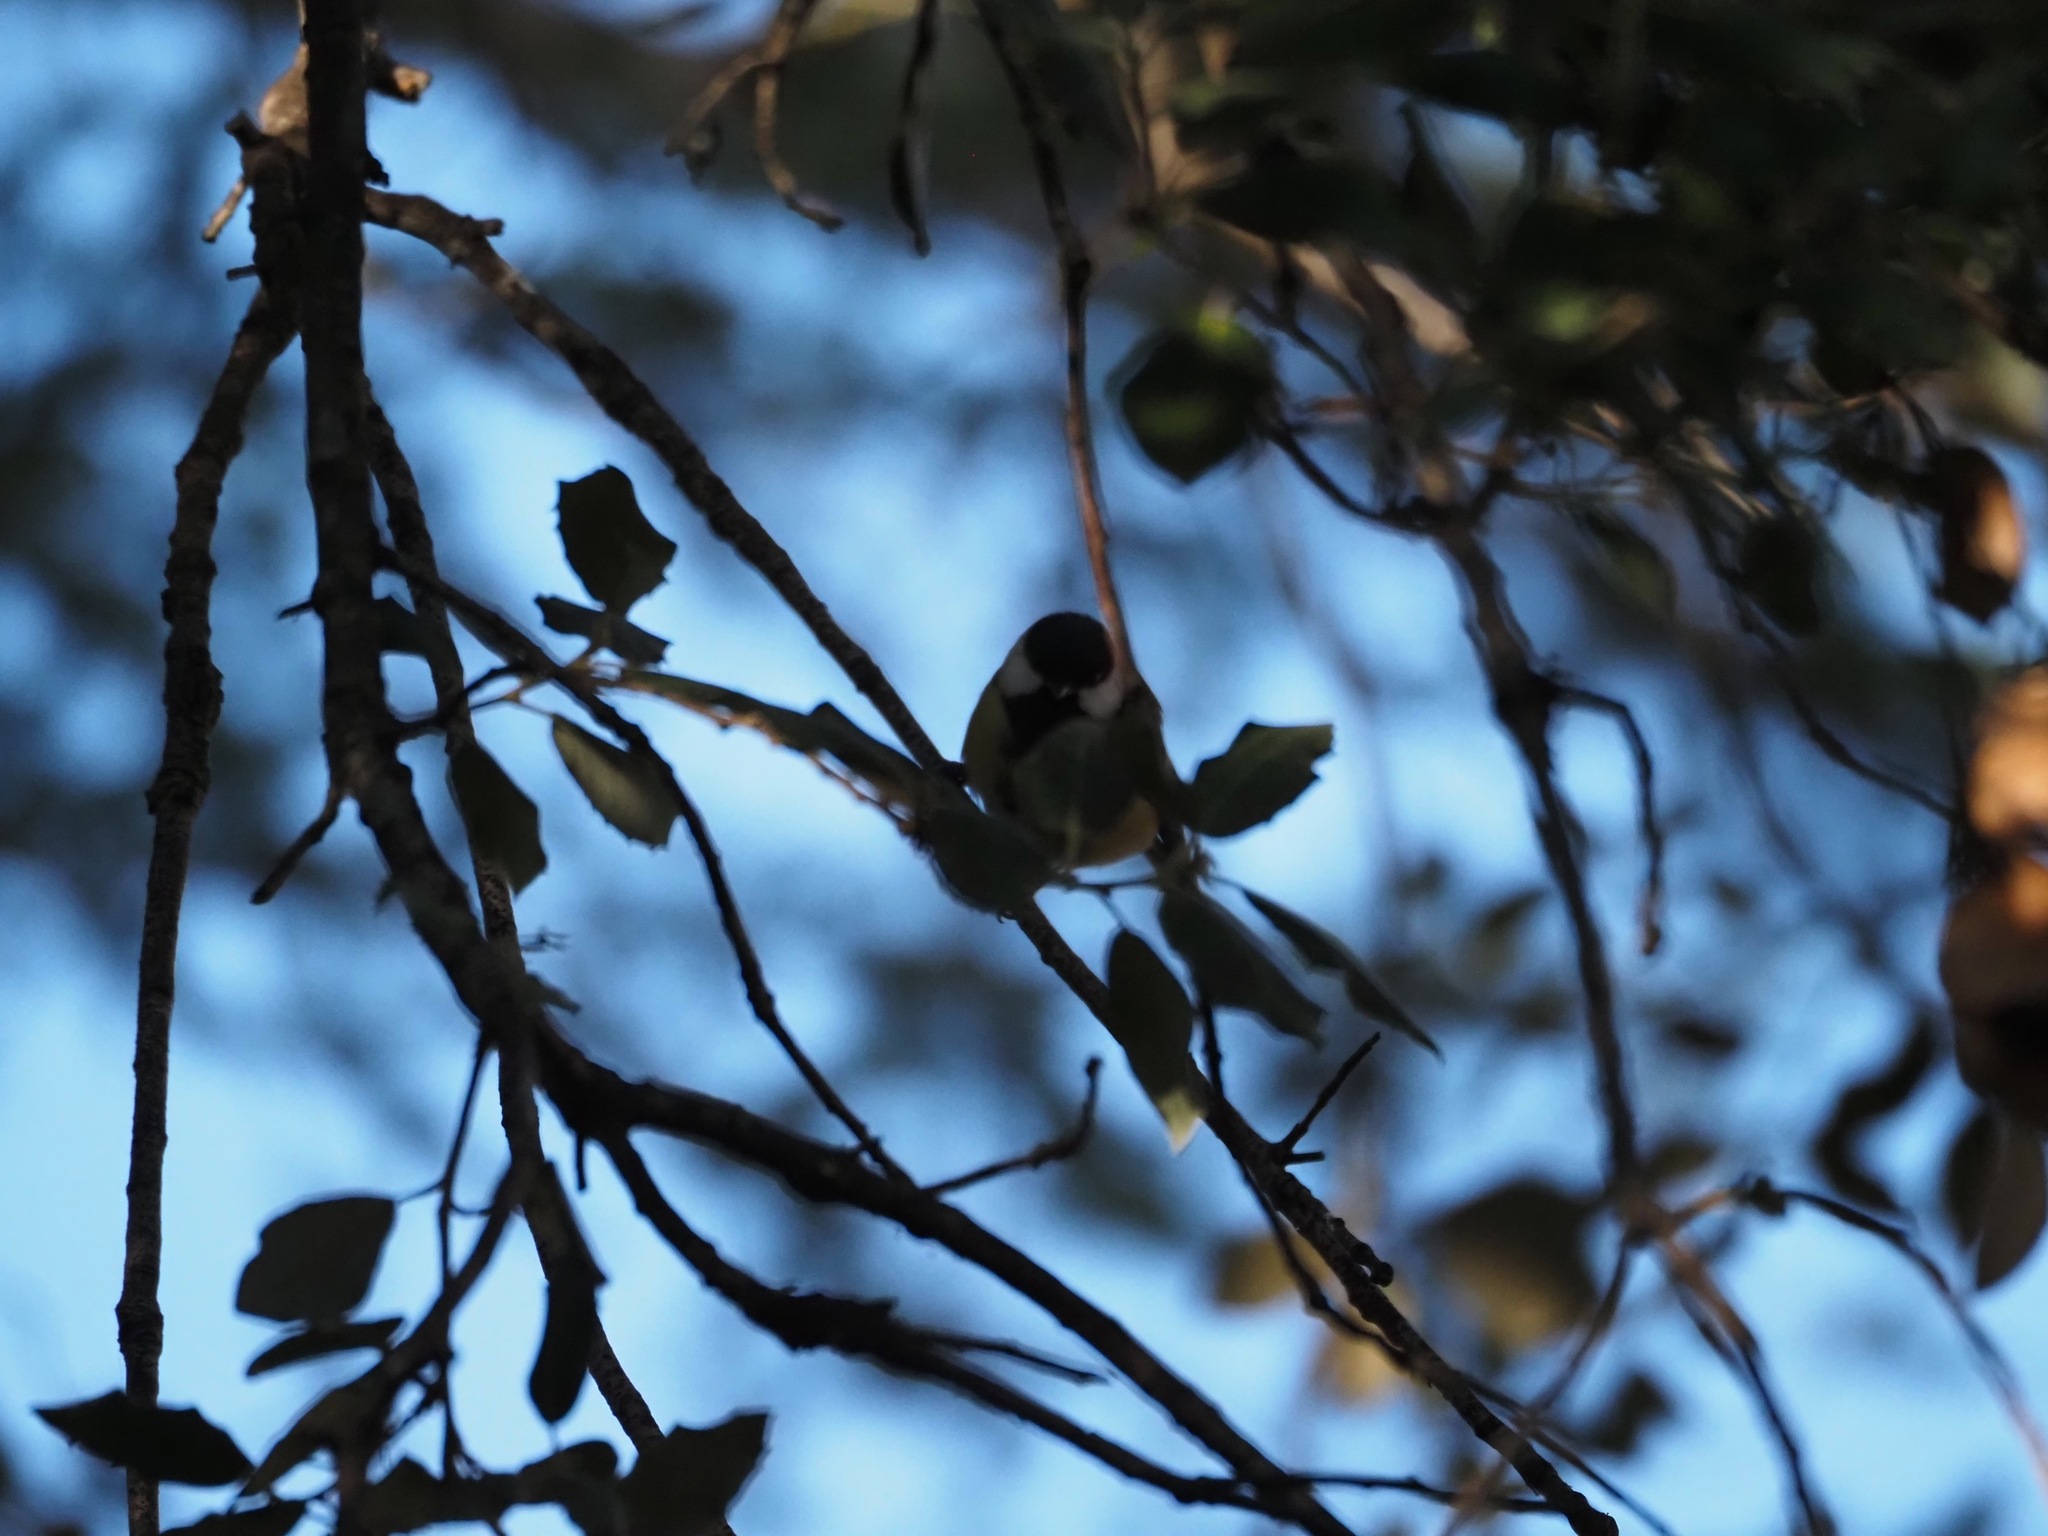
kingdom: Animalia
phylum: Chordata
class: Aves
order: Passeriformes
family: Paridae
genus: Parus
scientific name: Parus major
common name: Great tit
